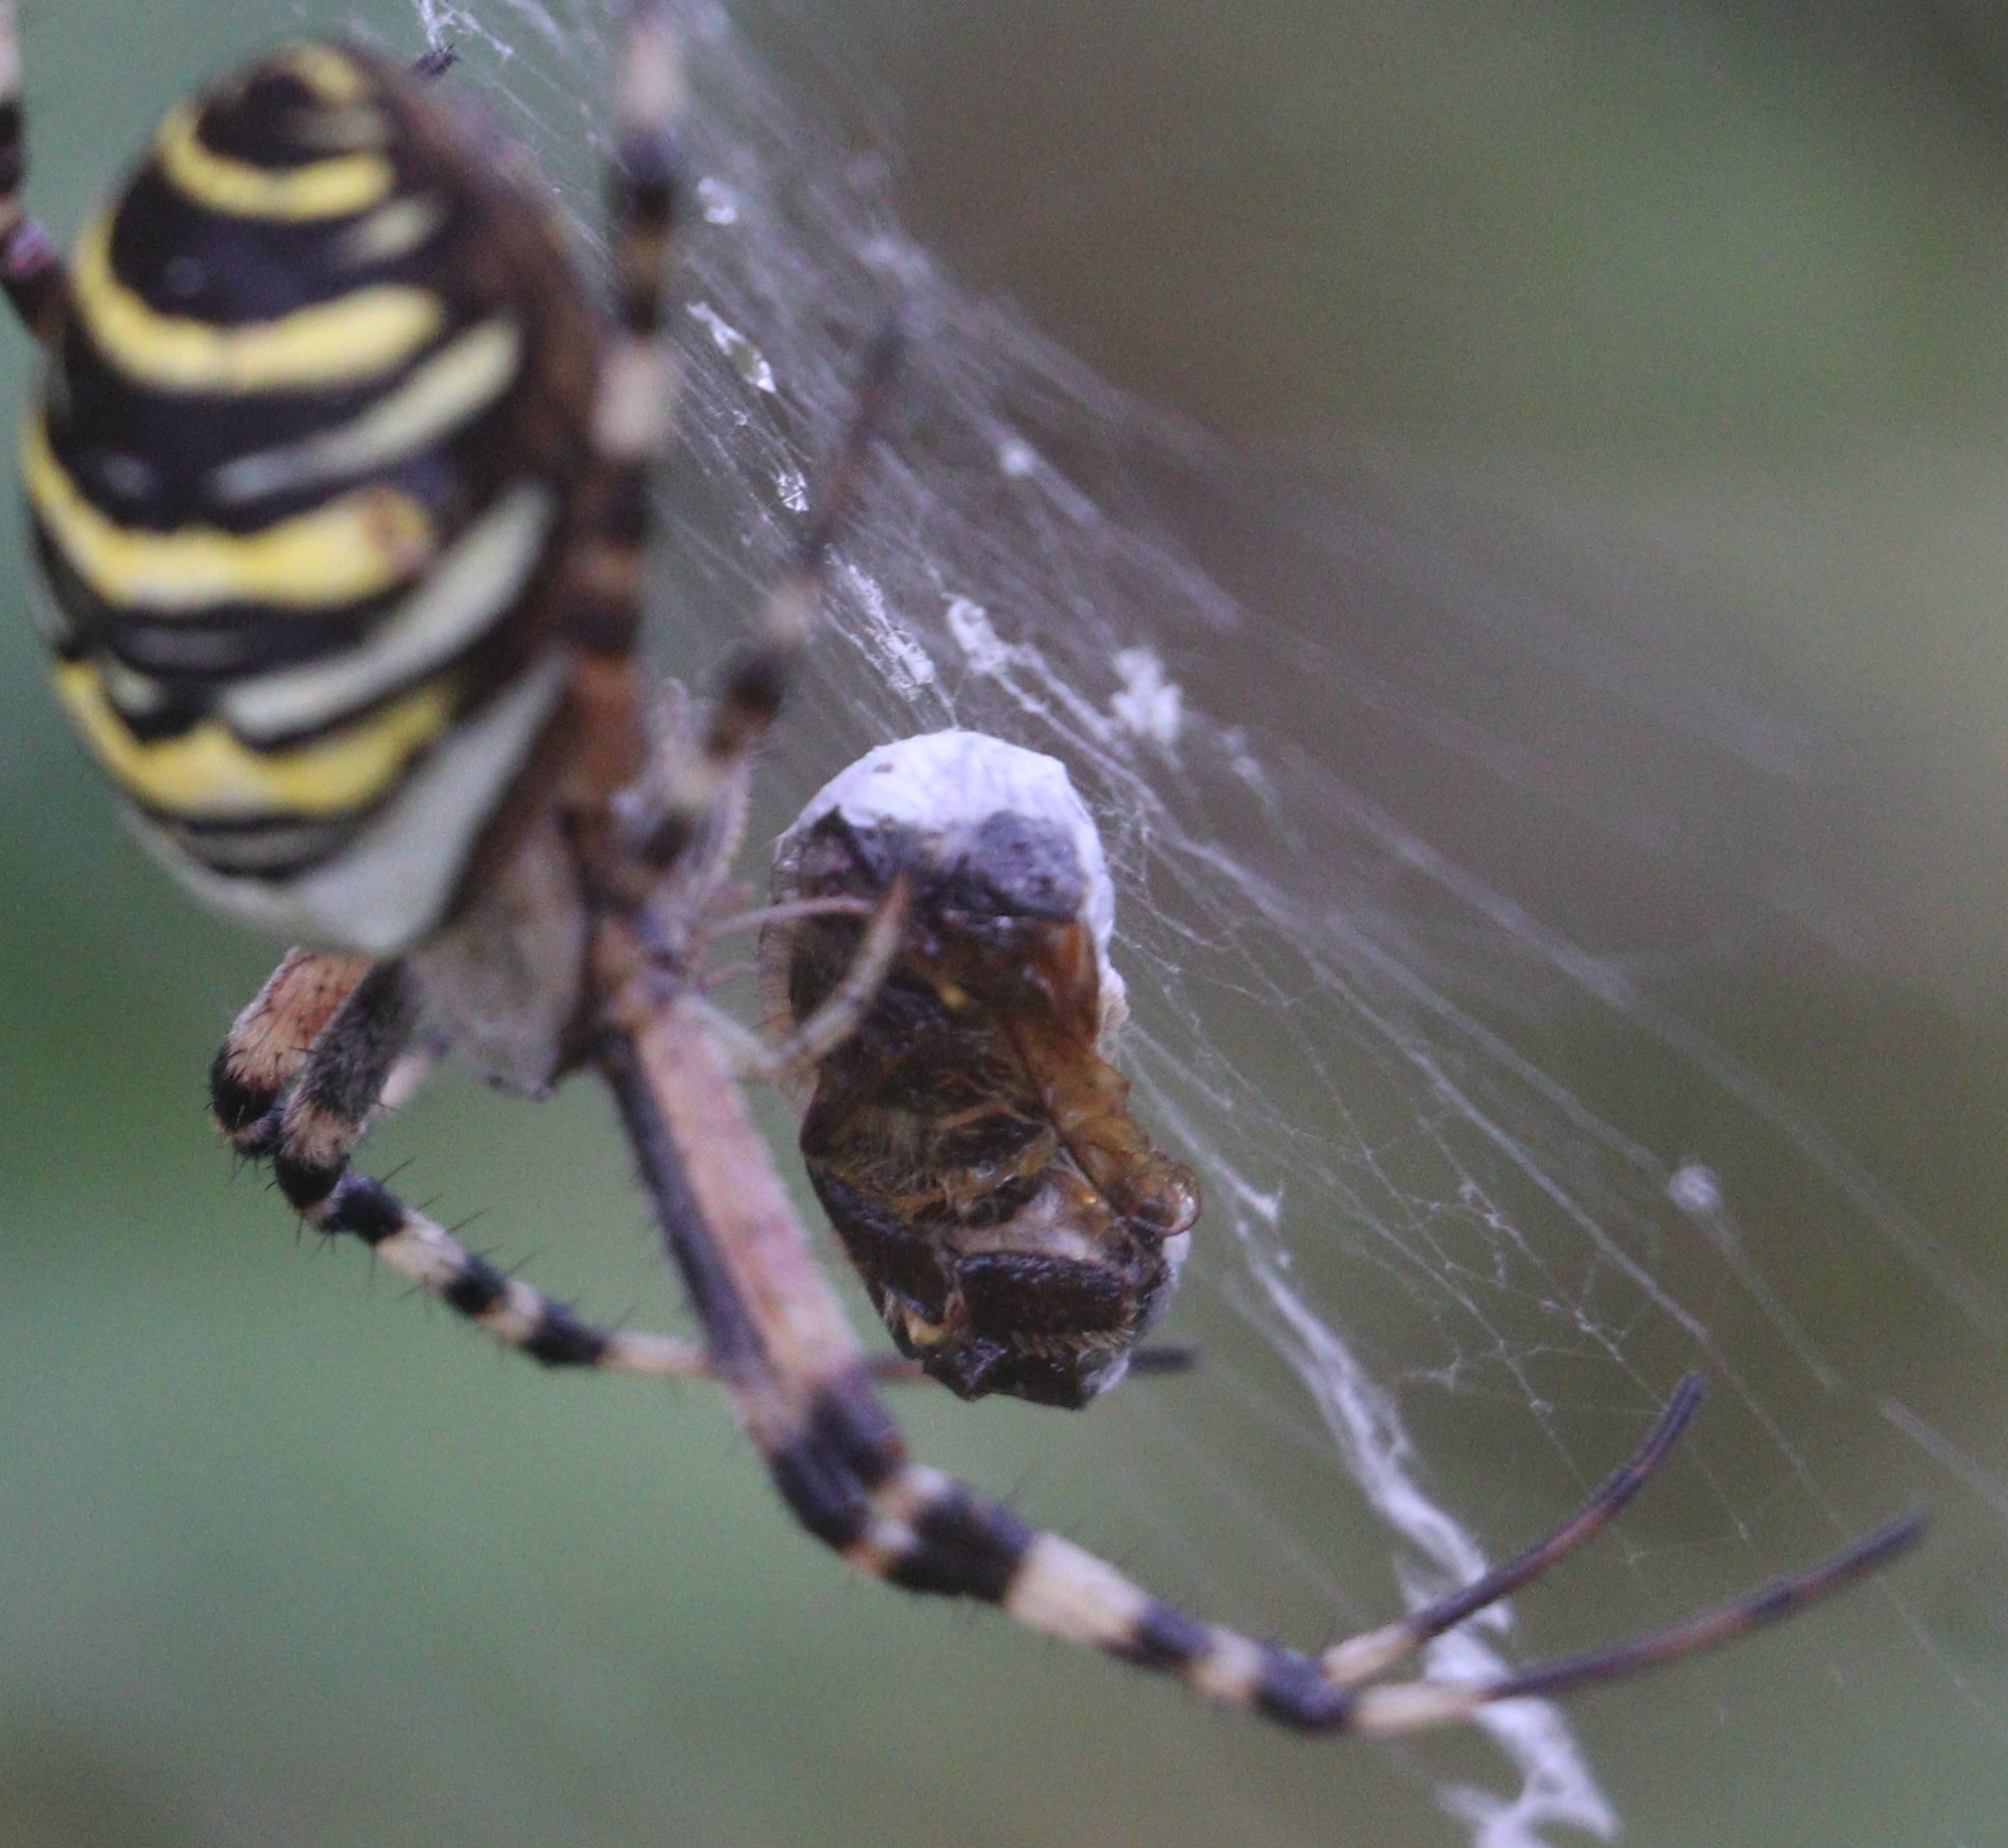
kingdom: Animalia
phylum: Arthropoda
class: Arachnida
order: Araneae
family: Araneidae
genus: Argiope
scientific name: Argiope bruennichi
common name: Wasp spider
